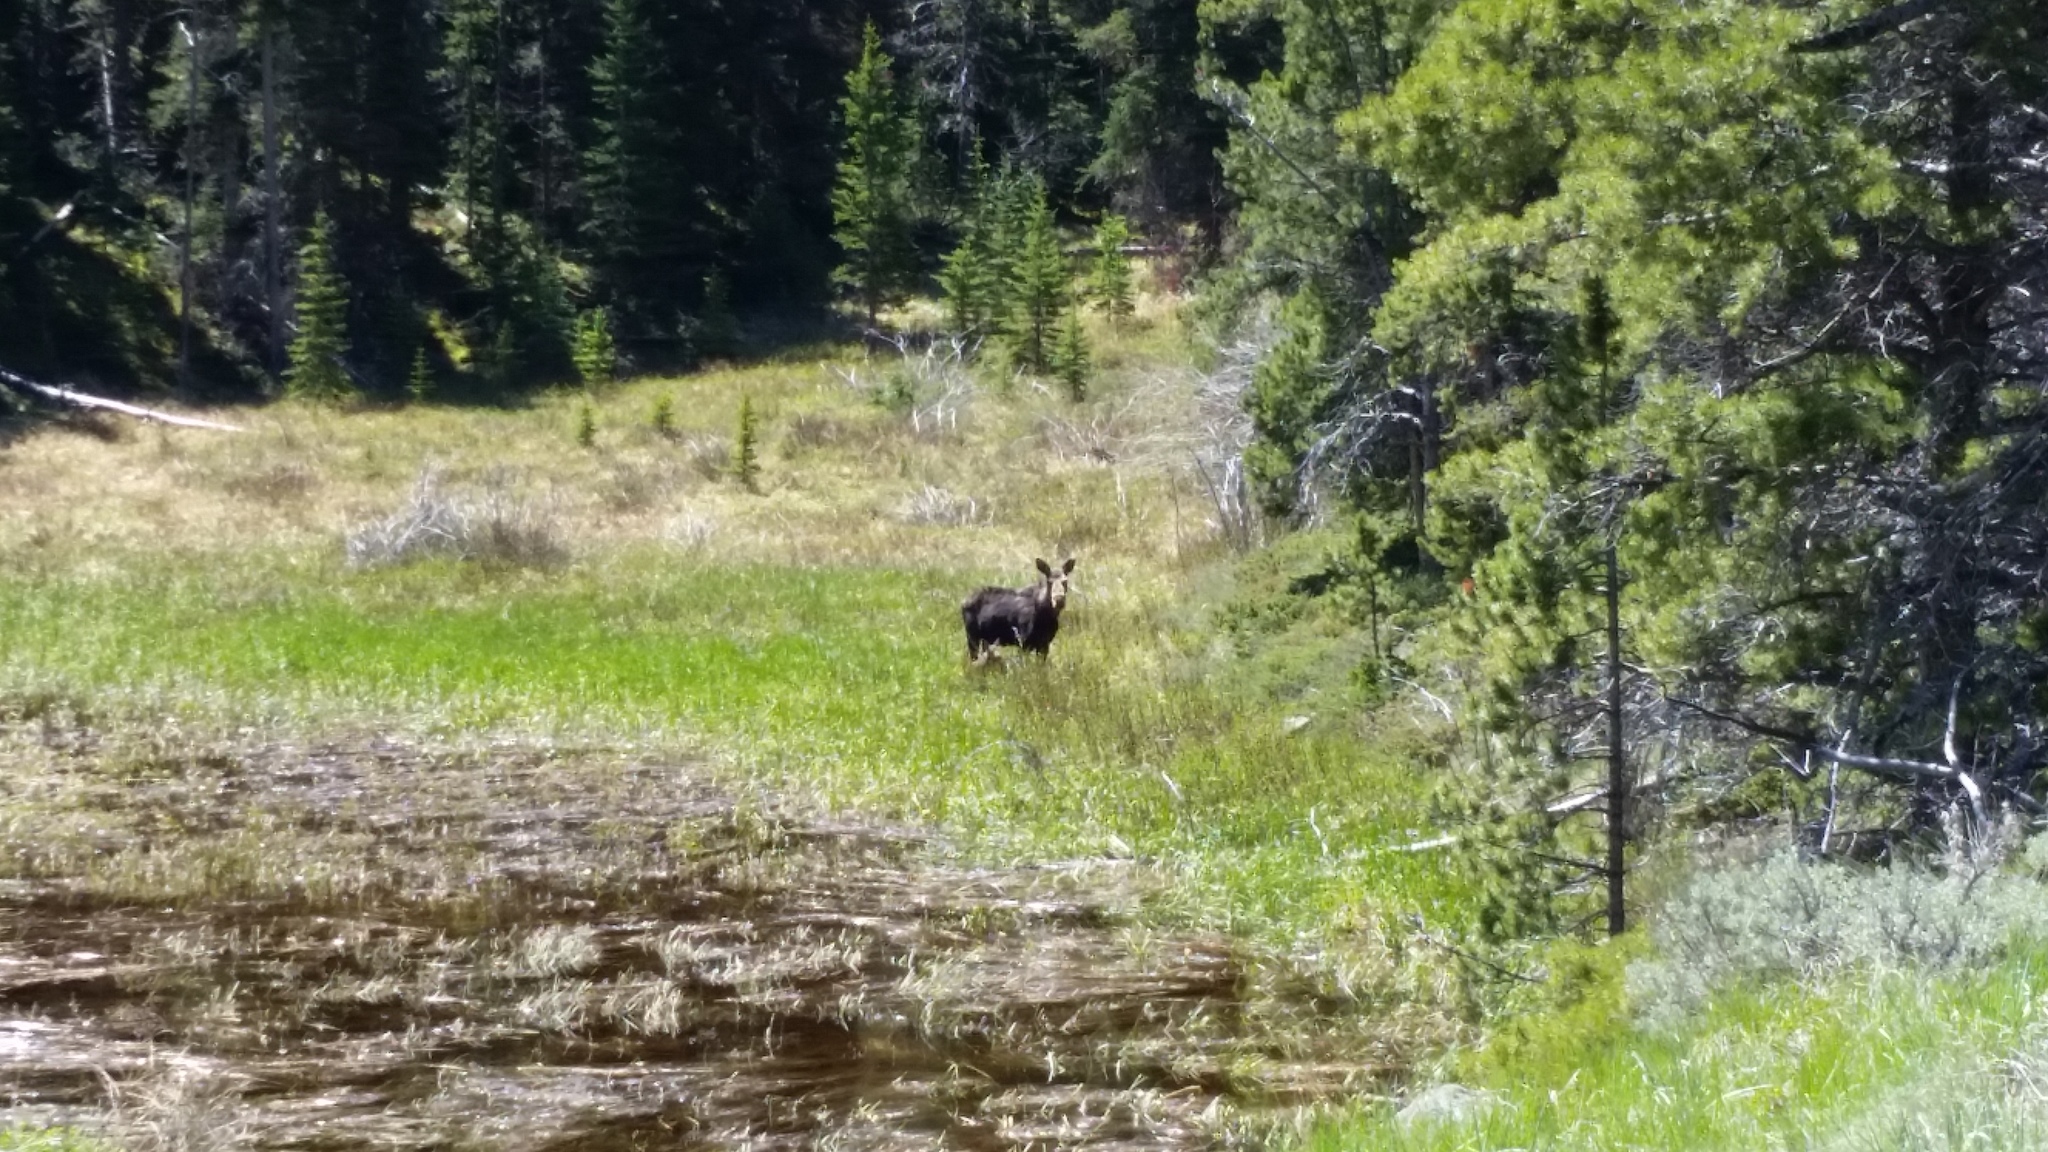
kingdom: Animalia
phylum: Chordata
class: Mammalia
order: Artiodactyla
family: Cervidae
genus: Alces
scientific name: Alces alces
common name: Moose
